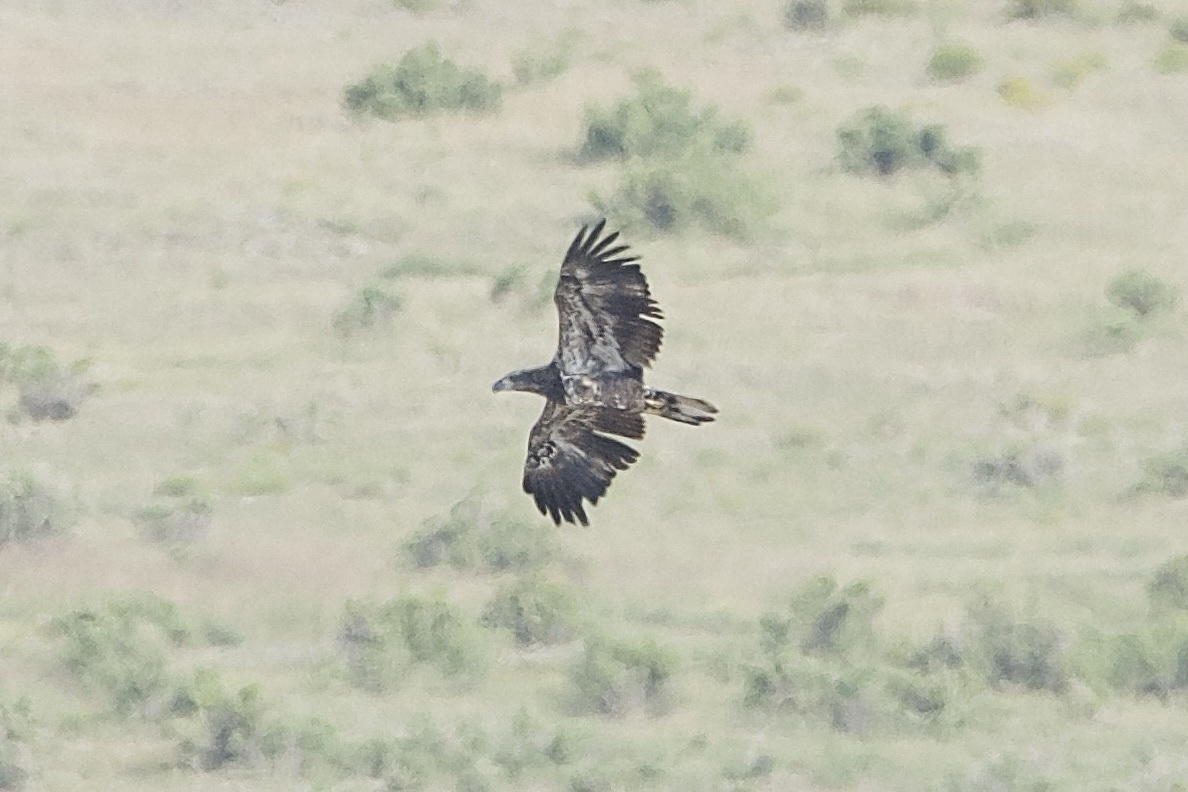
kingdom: Animalia
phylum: Chordata
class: Aves
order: Accipitriformes
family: Accipitridae
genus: Haliaeetus
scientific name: Haliaeetus leucocephalus
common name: Bald eagle
